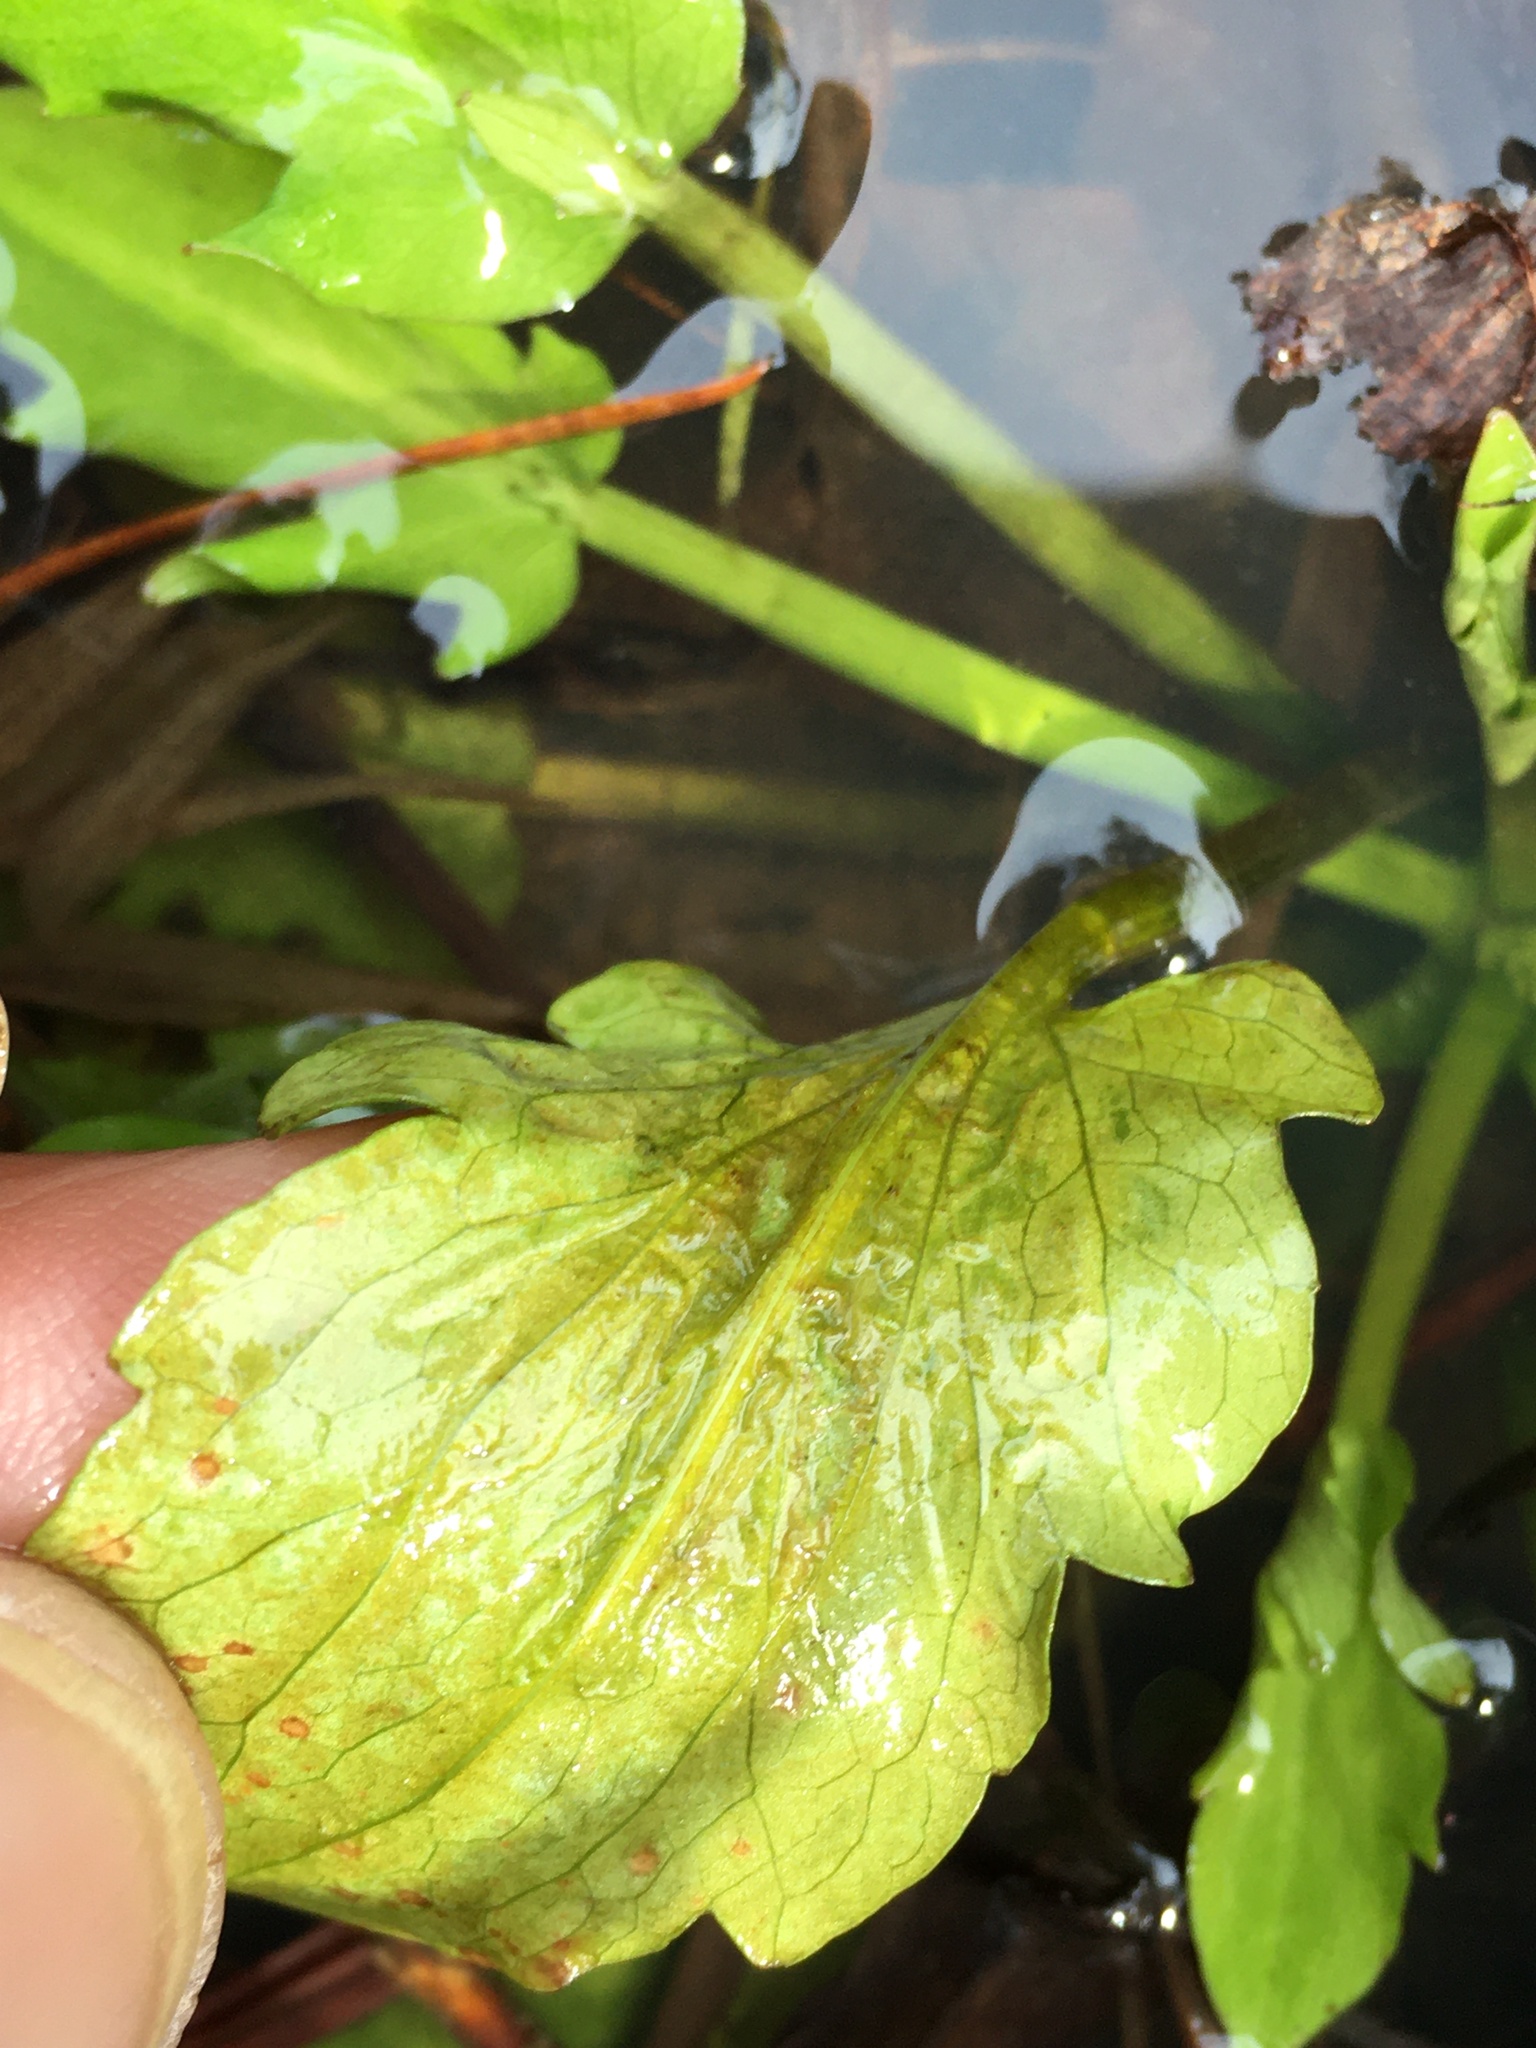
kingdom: Plantae
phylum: Tracheophyta
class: Magnoliopsida
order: Apiales
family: Apiaceae
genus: Eryngium
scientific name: Eryngium prostratum
